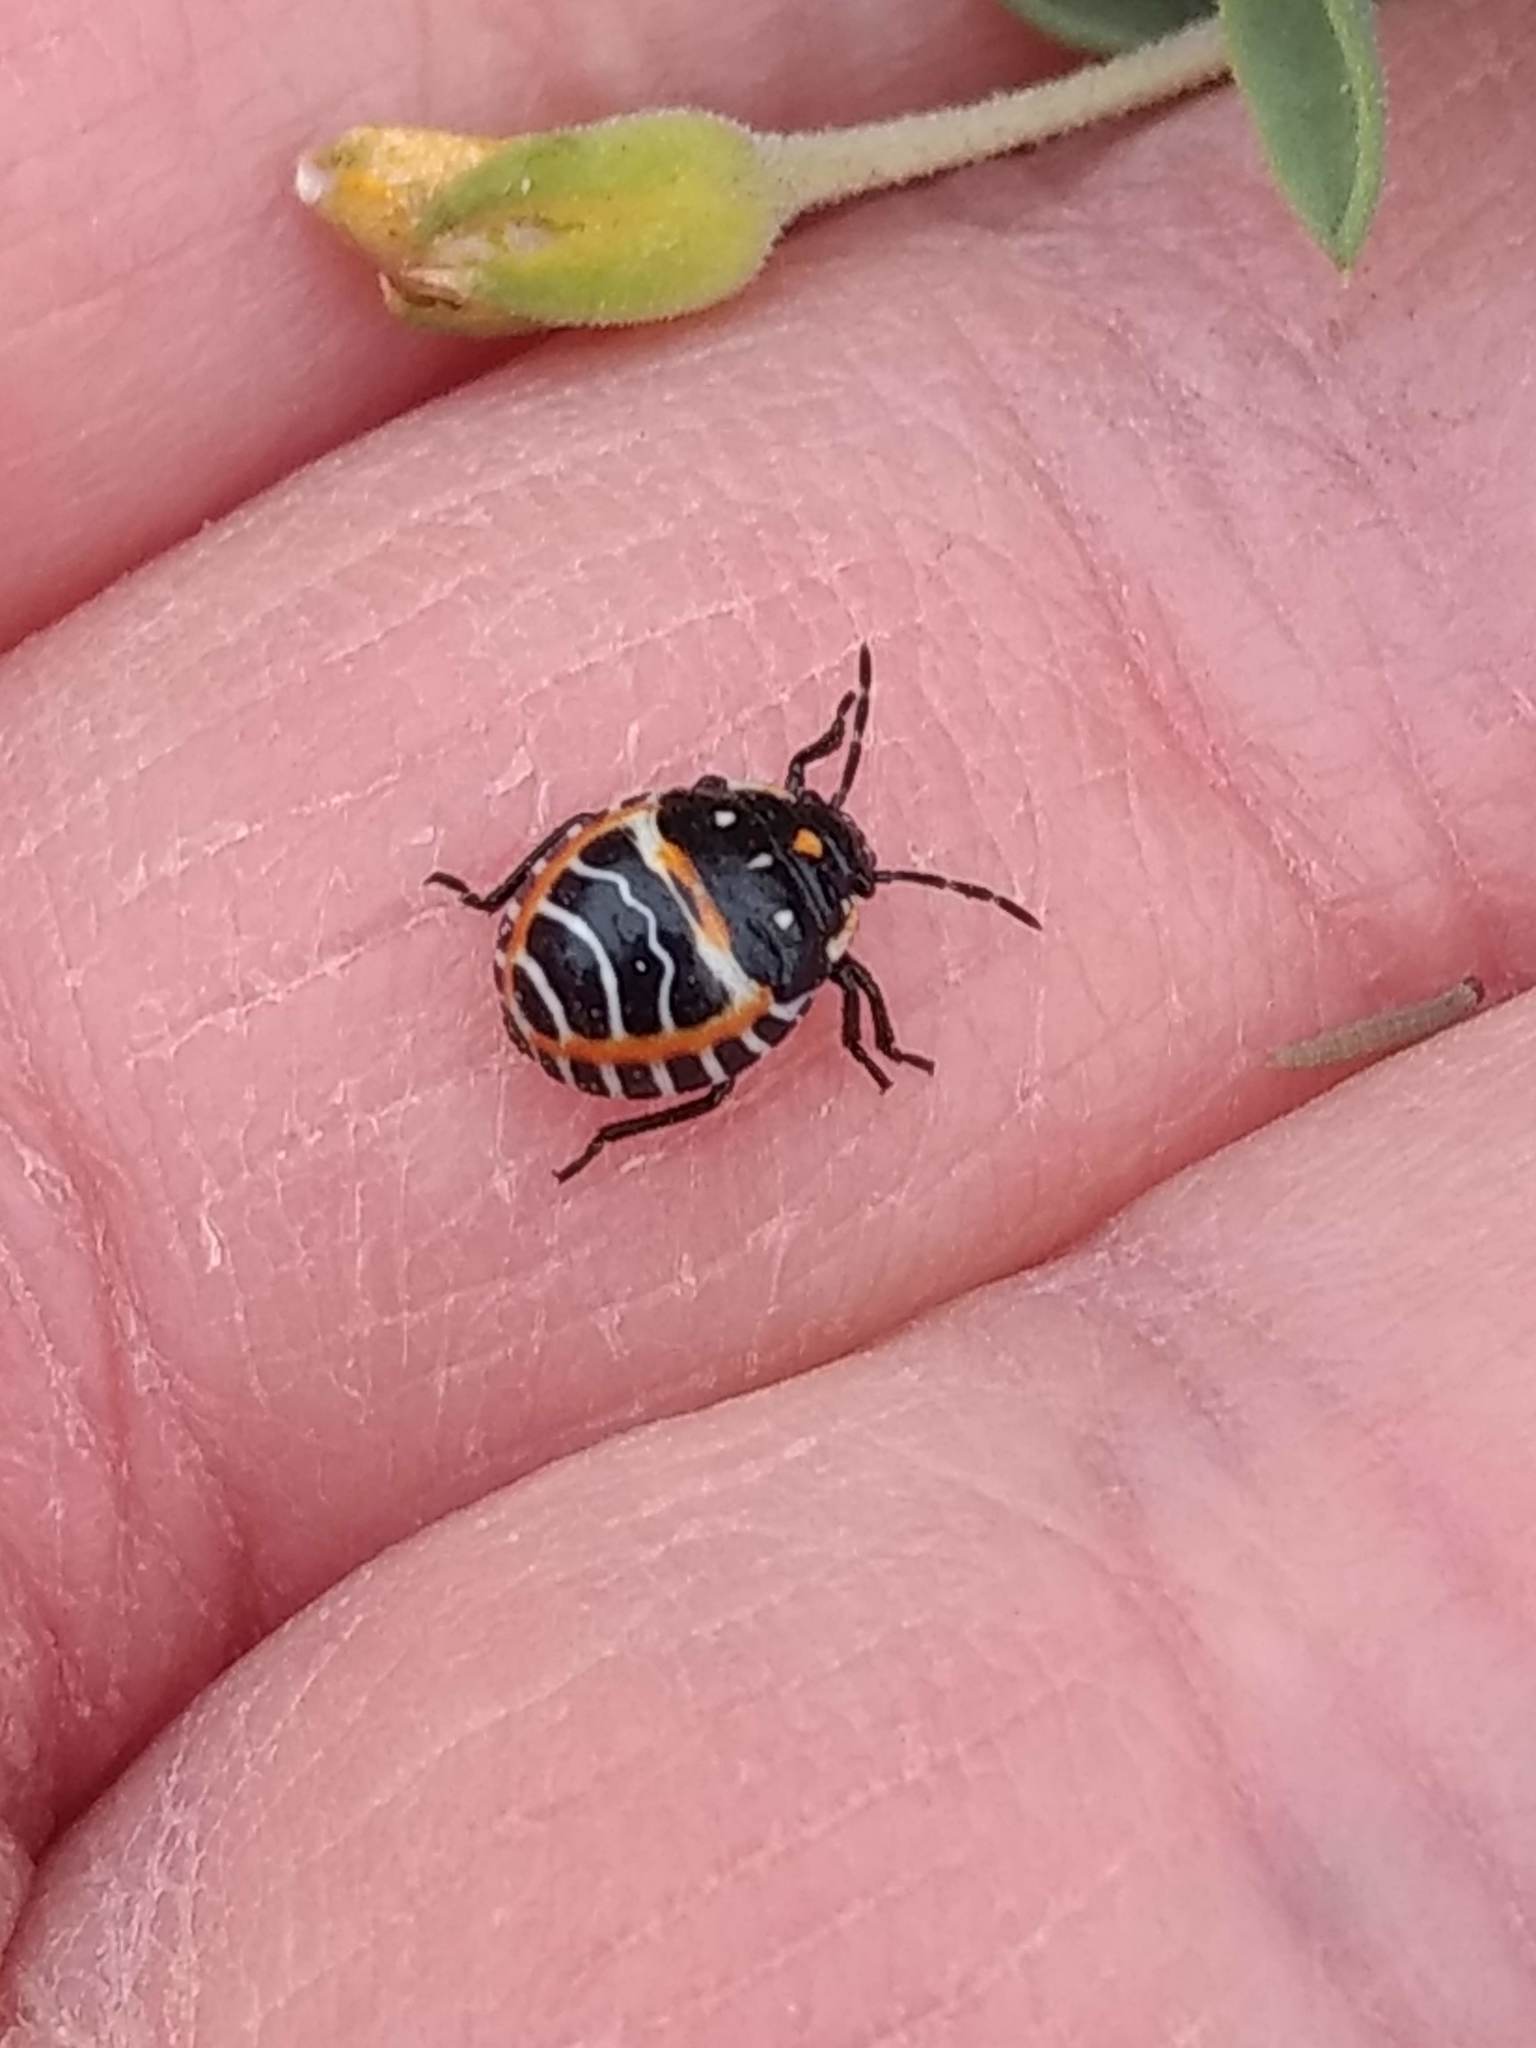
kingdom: Animalia
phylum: Arthropoda
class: Insecta
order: Hemiptera
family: Pentatomidae
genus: Murgantia
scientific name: Murgantia histrionica
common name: Harlequin bug
